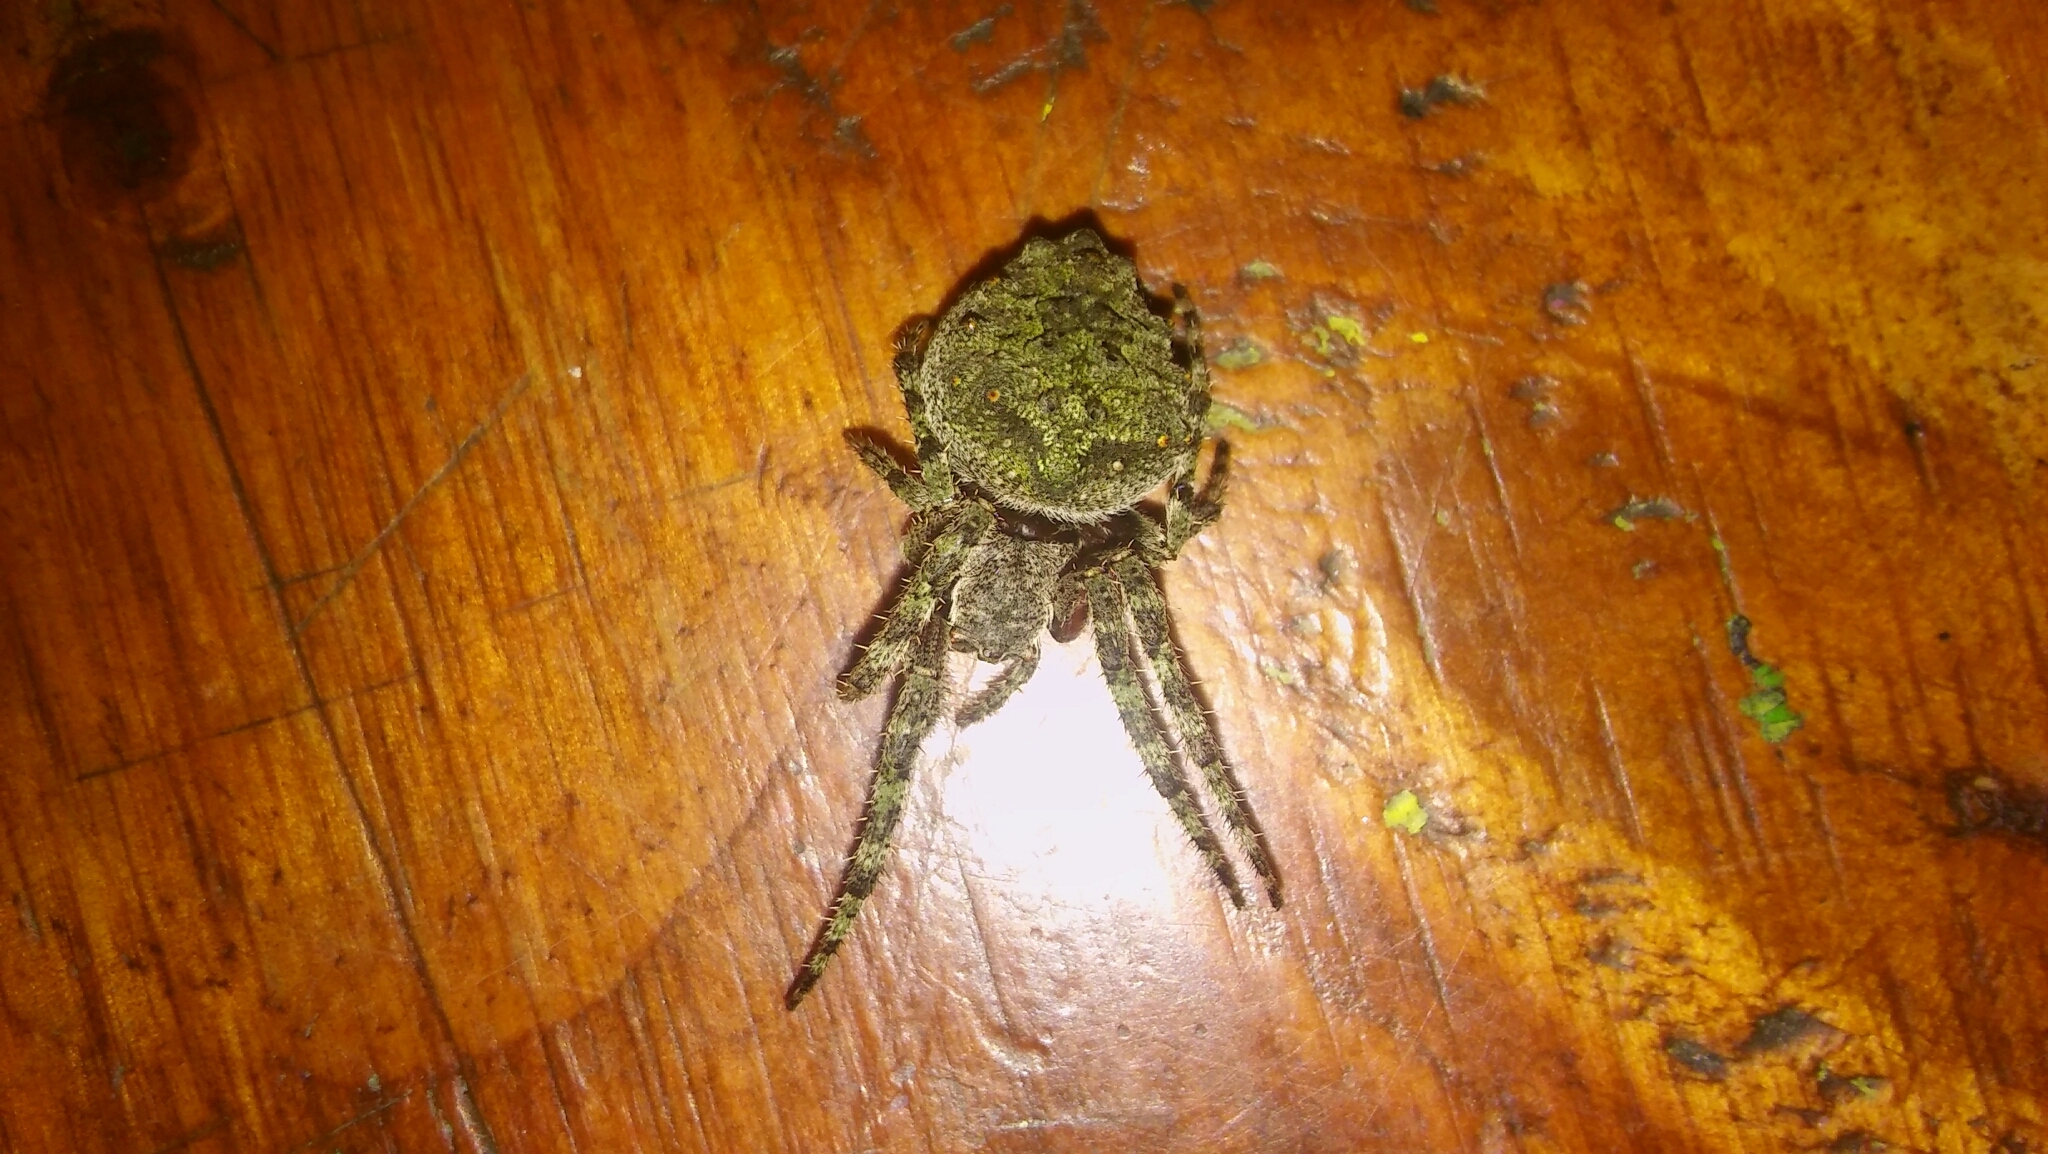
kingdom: Animalia
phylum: Arthropoda
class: Arachnida
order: Araneae
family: Araneidae
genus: Parawixia
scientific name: Parawixia audax
